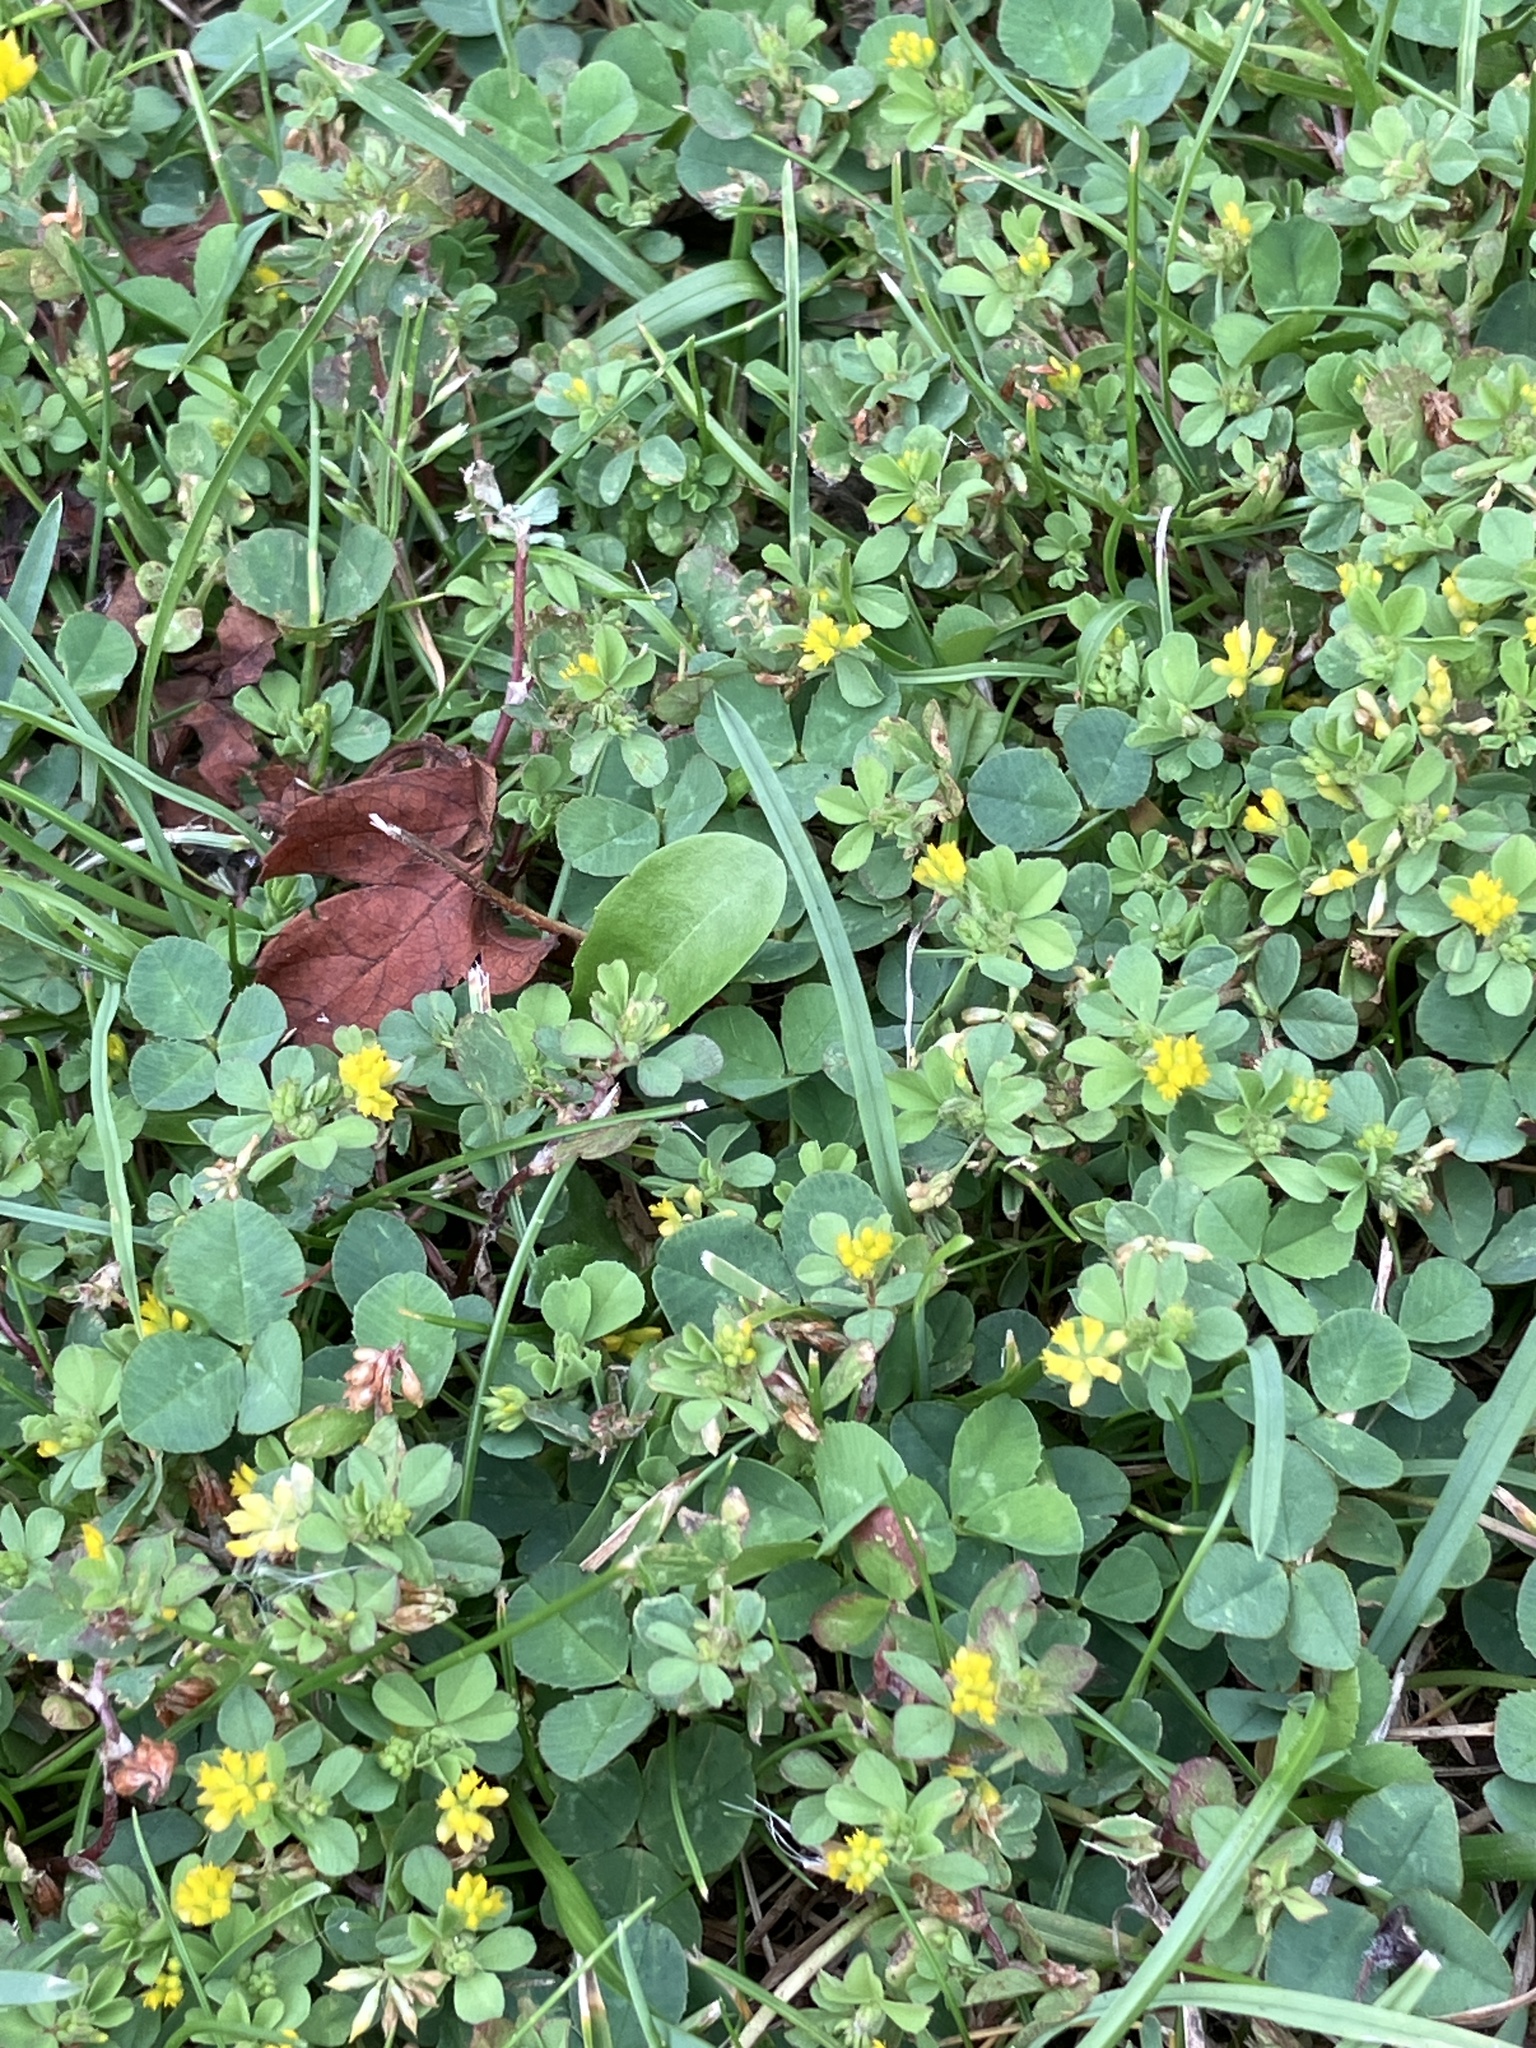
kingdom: Plantae
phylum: Tracheophyta
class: Magnoliopsida
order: Fabales
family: Fabaceae
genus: Trifolium
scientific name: Trifolium dubium
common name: Suckling clover
